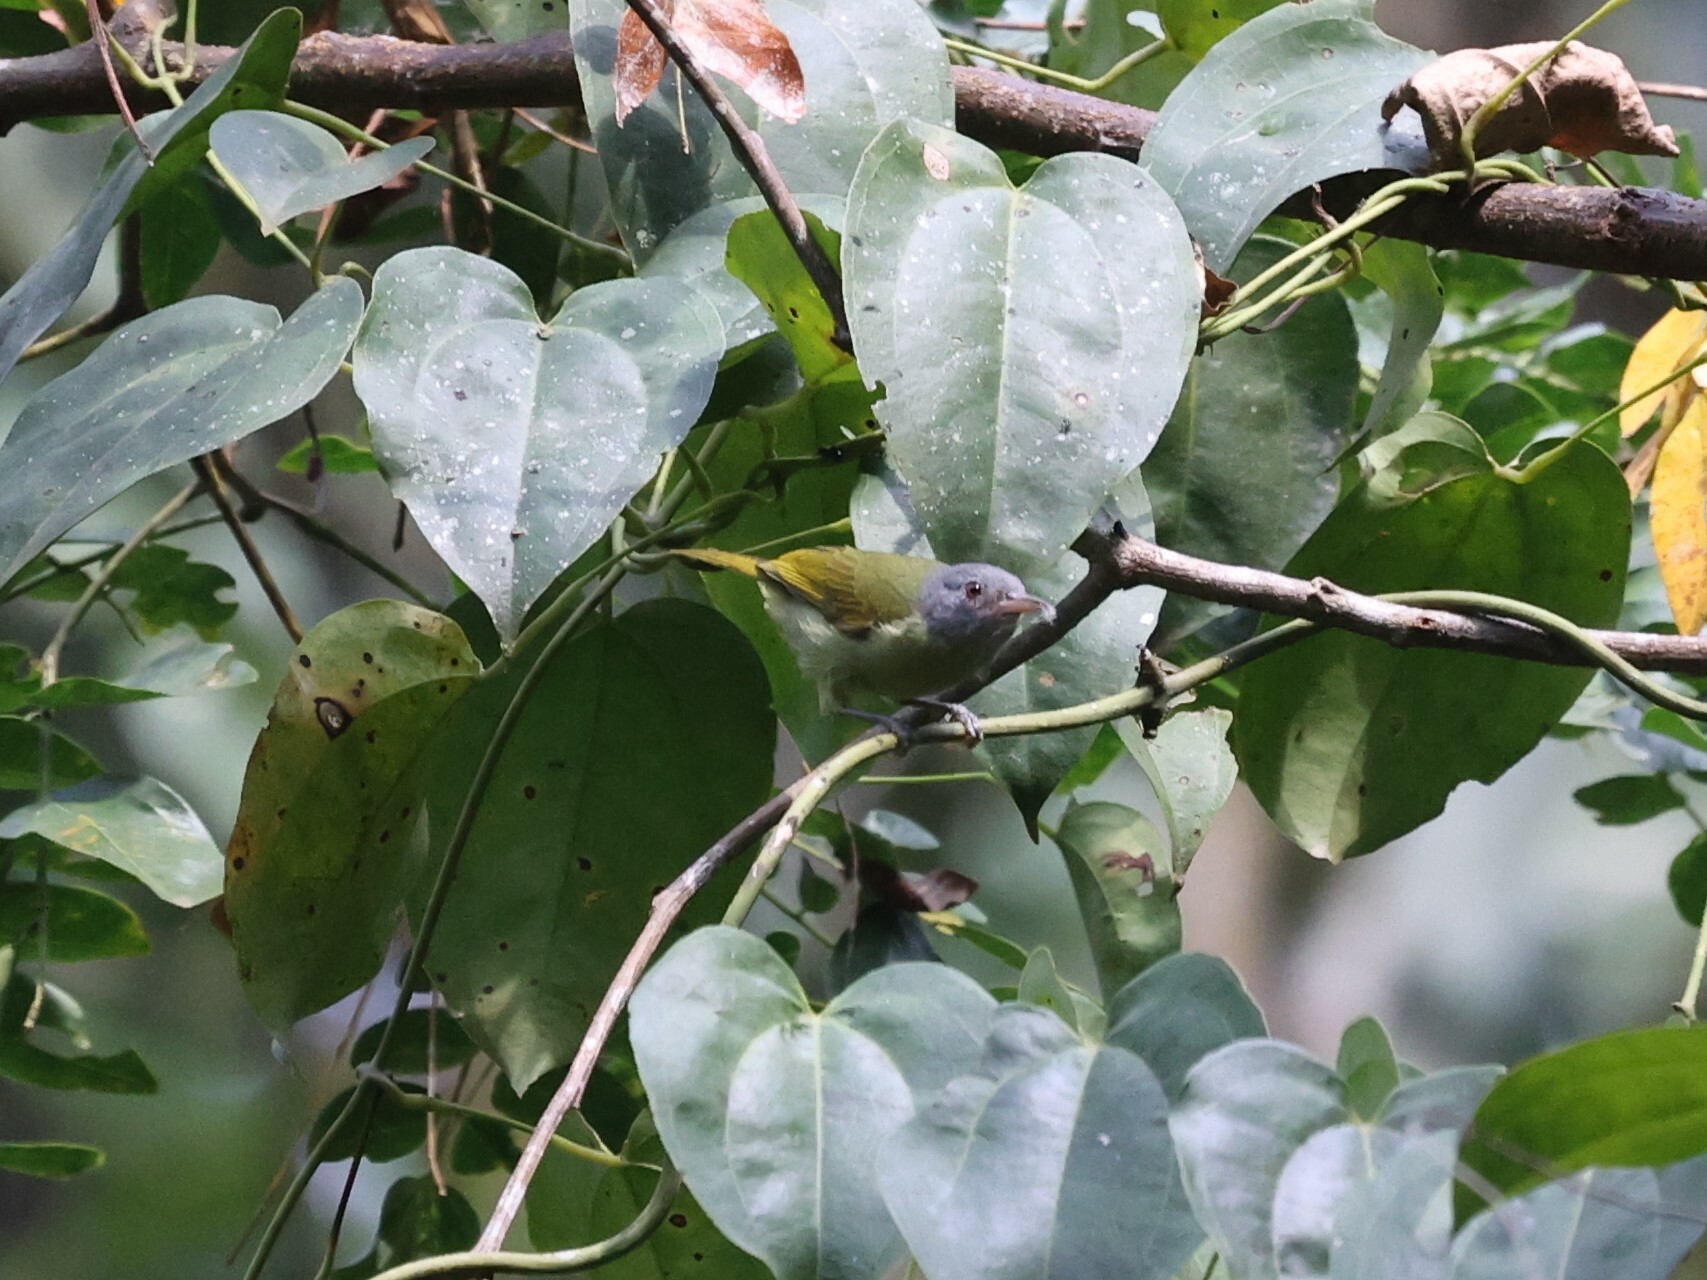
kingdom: Animalia
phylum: Chordata
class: Aves
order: Passeriformes
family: Nectariniidae
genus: Deleornis
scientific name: Deleornis axillaris
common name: Grey-headed sunbird
